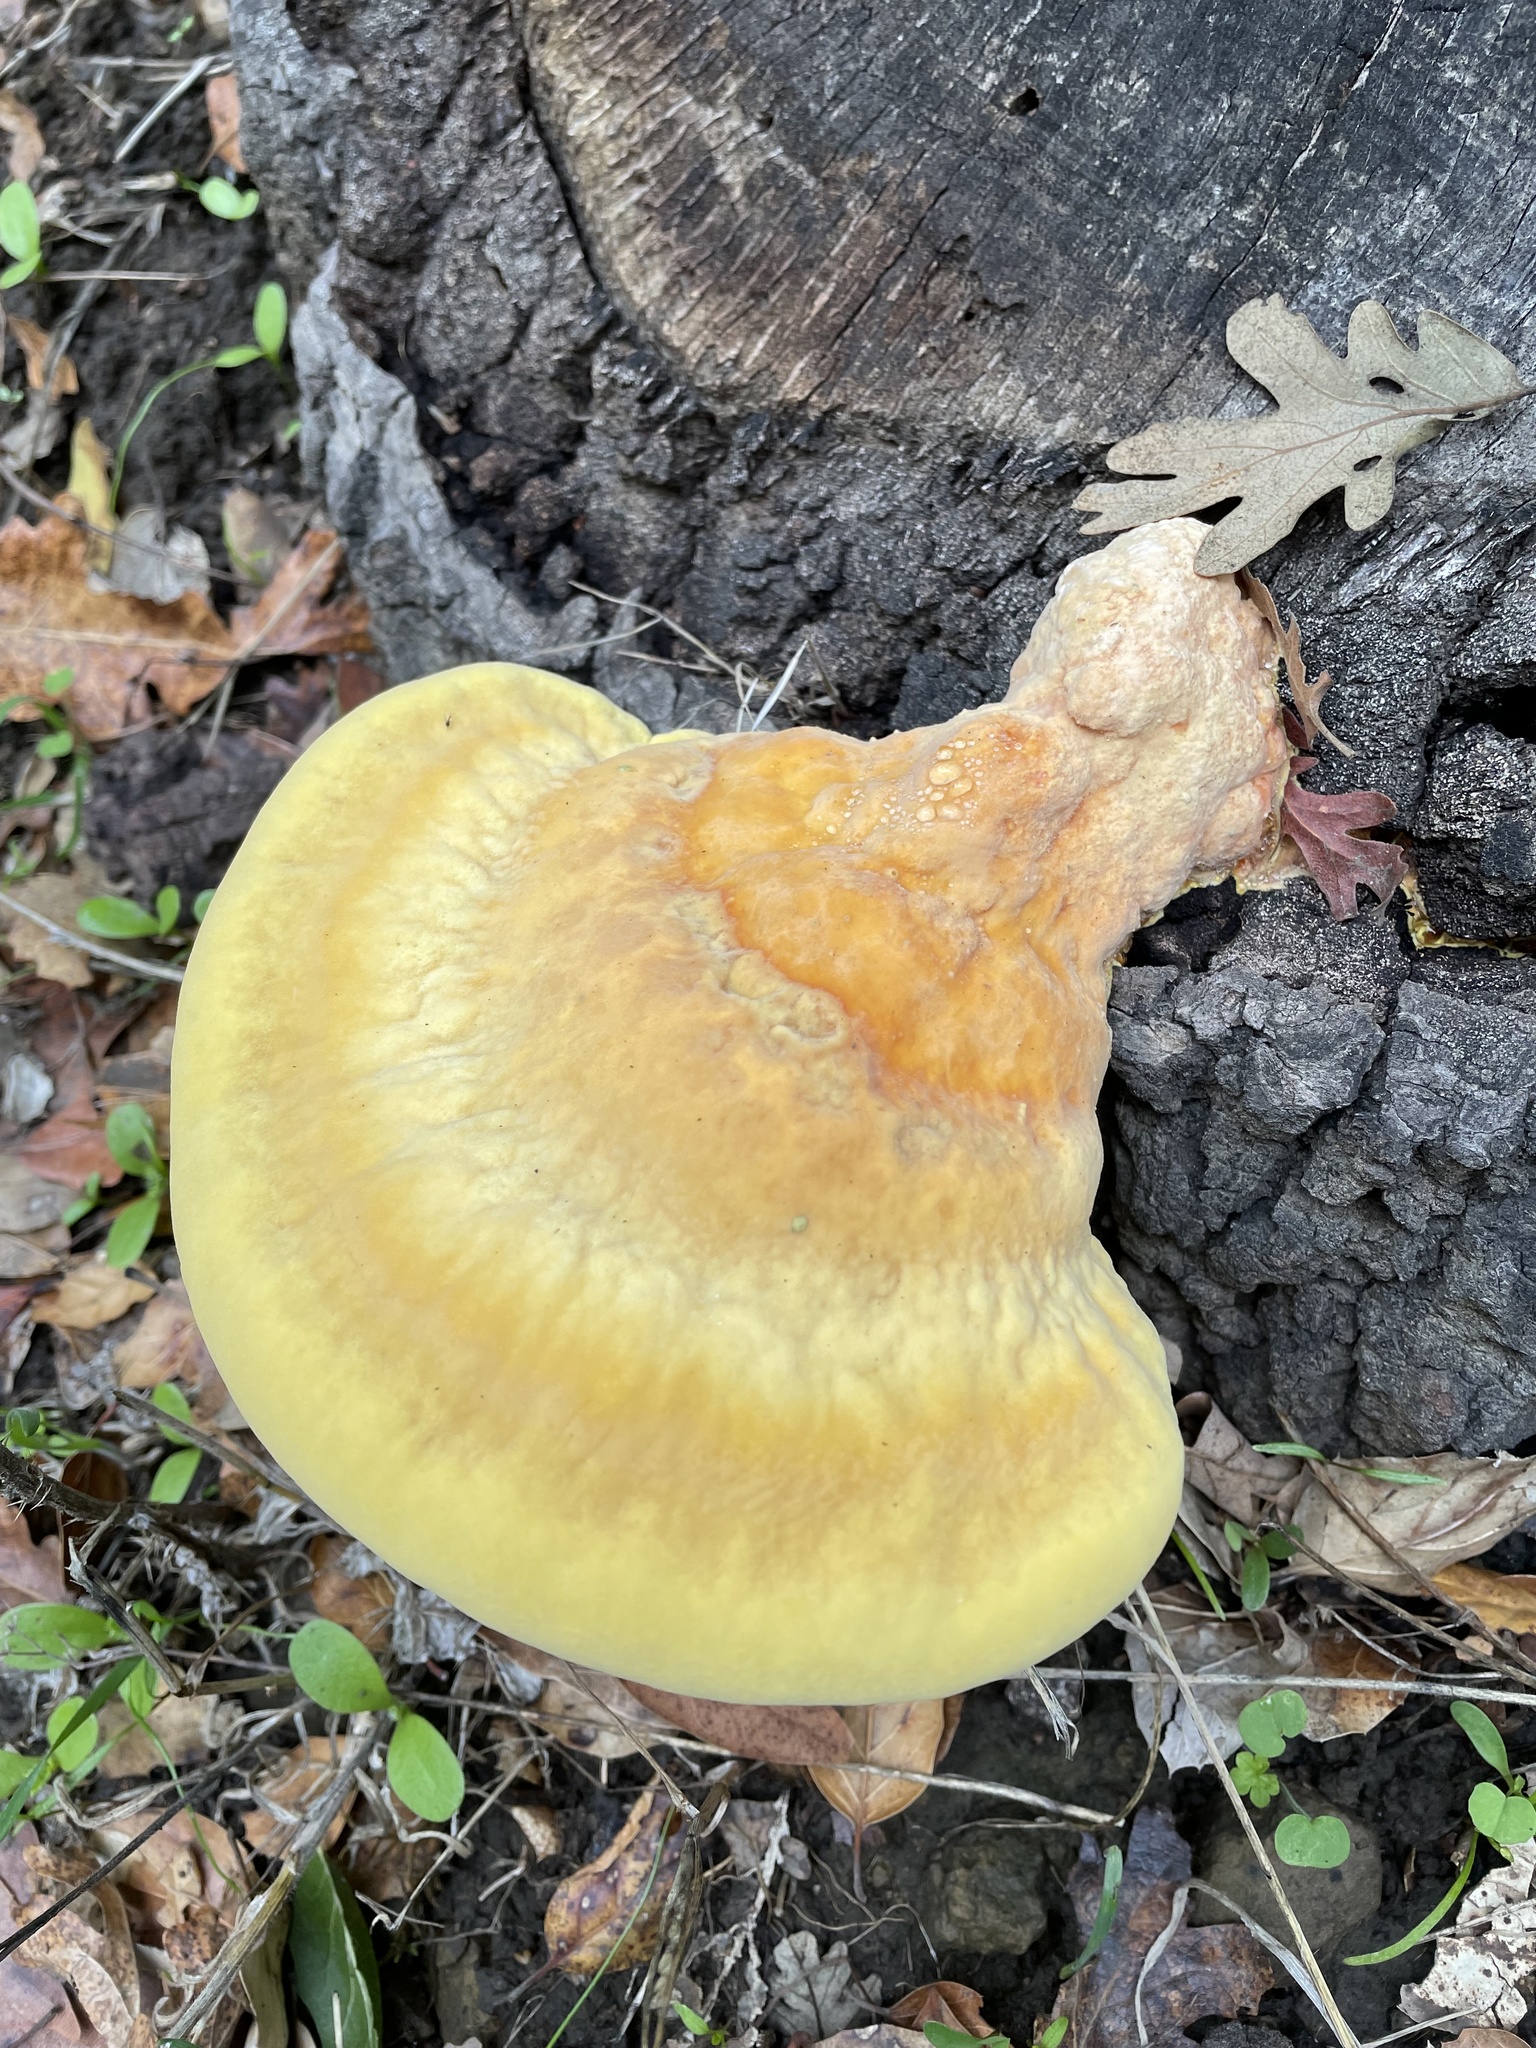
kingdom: Fungi
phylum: Basidiomycota
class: Agaricomycetes
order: Polyporales
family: Laetiporaceae
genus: Laetiporus
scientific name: Laetiporus gilbertsonii
